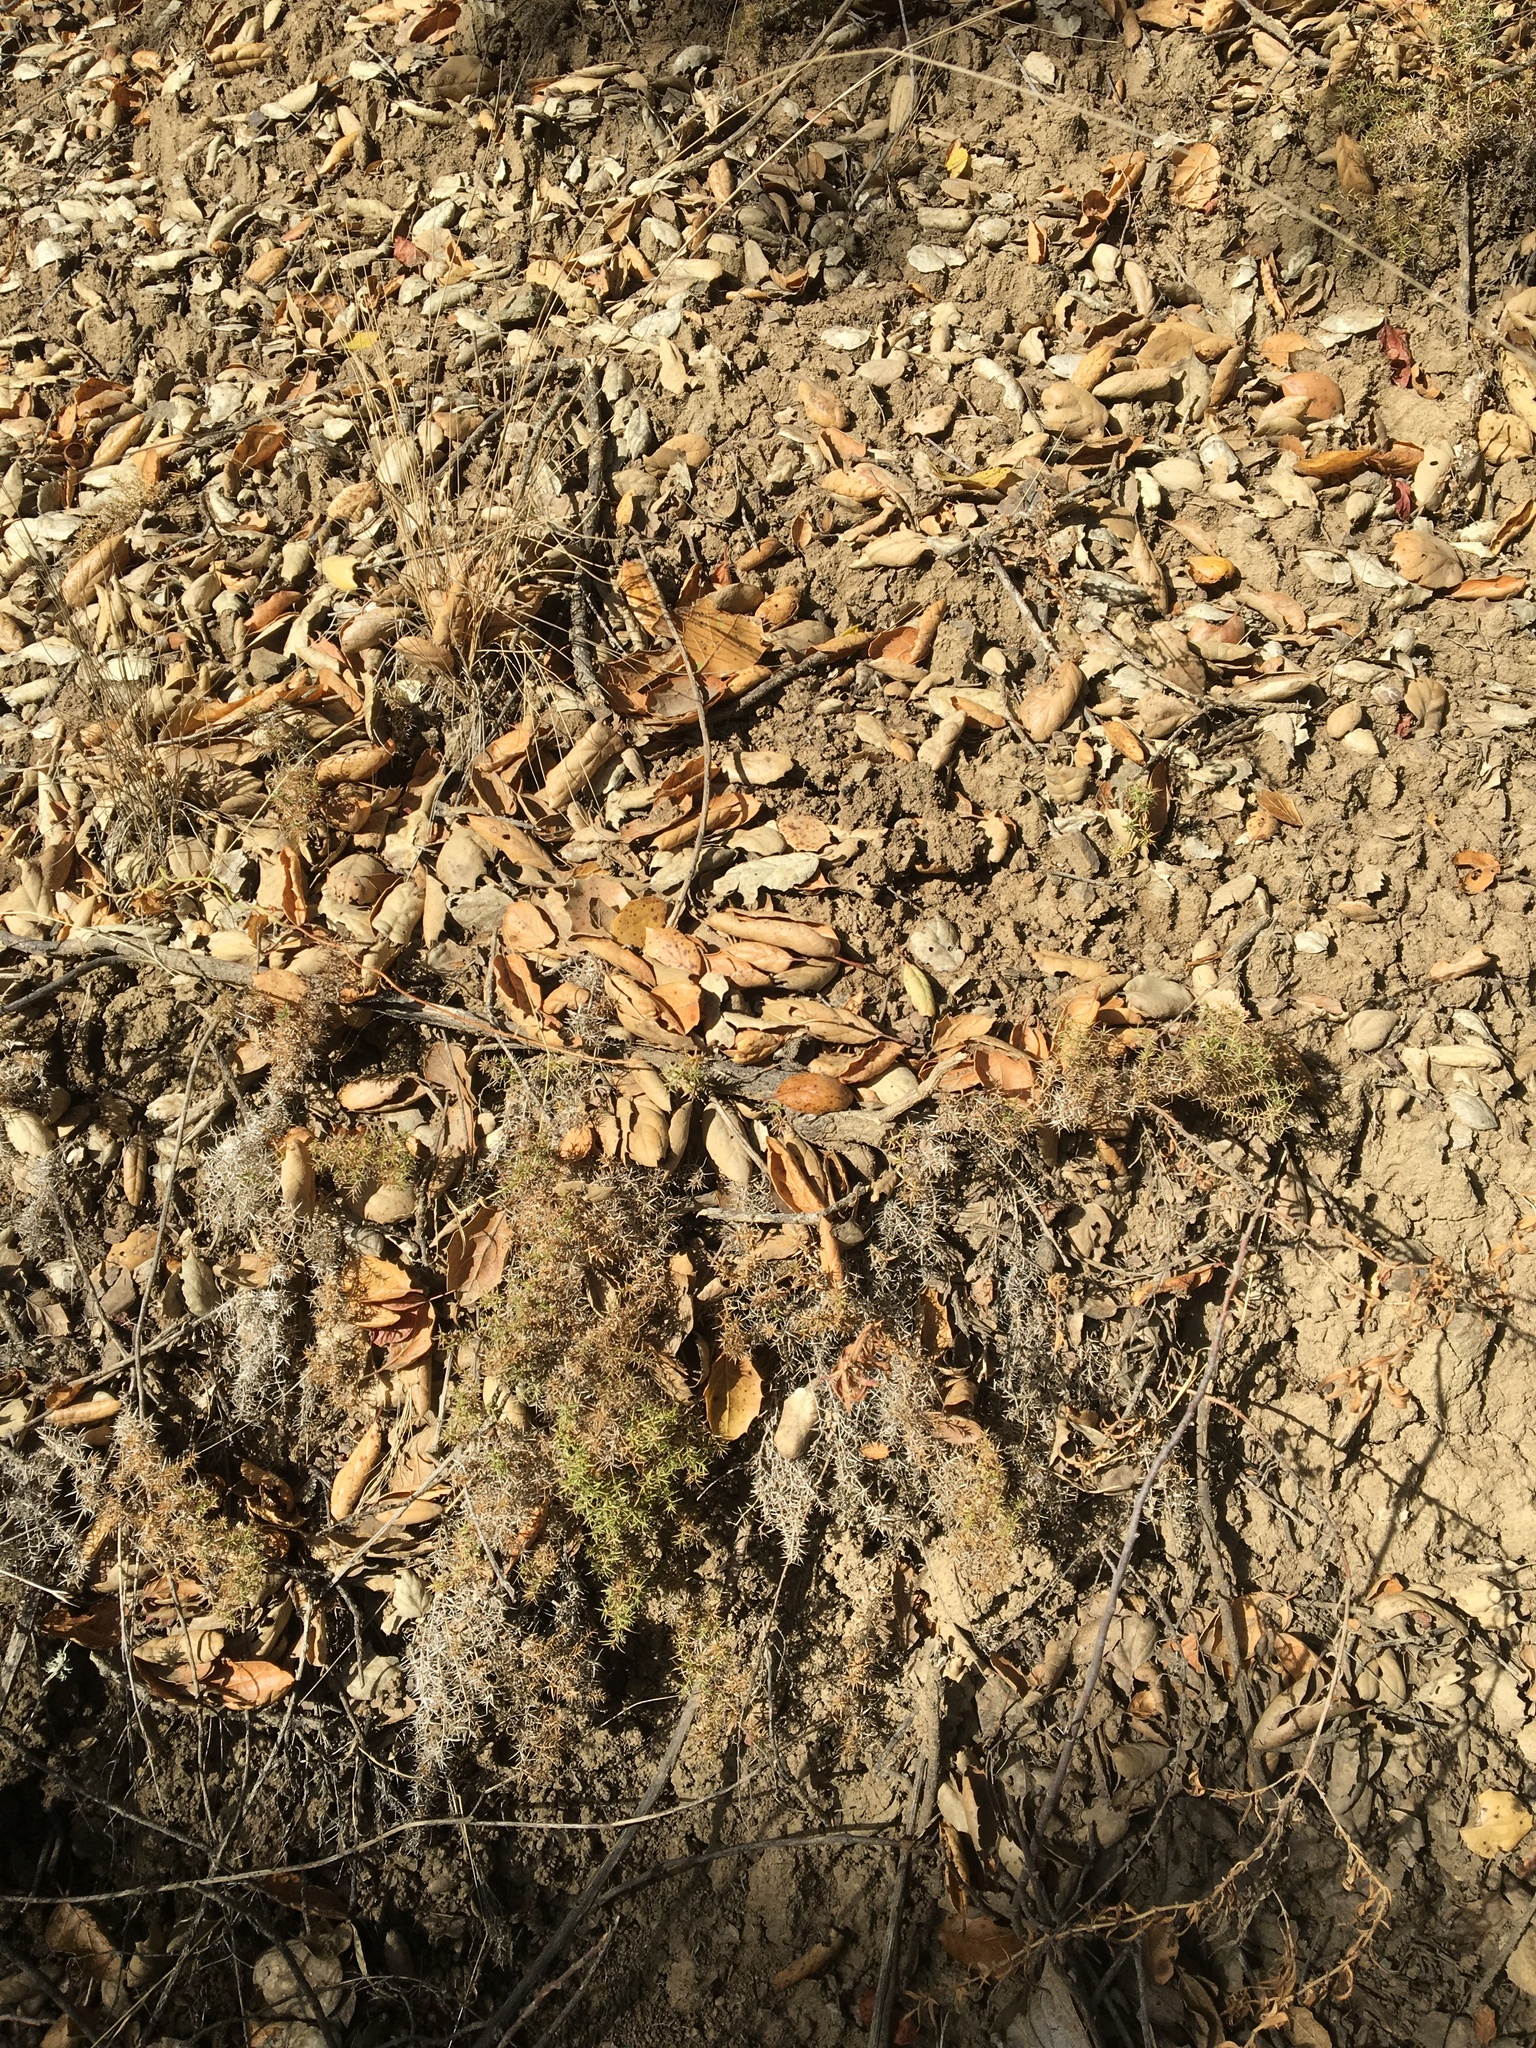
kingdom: Plantae
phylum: Tracheophyta
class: Magnoliopsida
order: Gentianales
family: Rubiaceae
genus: Galium
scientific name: Galium andrewsii
